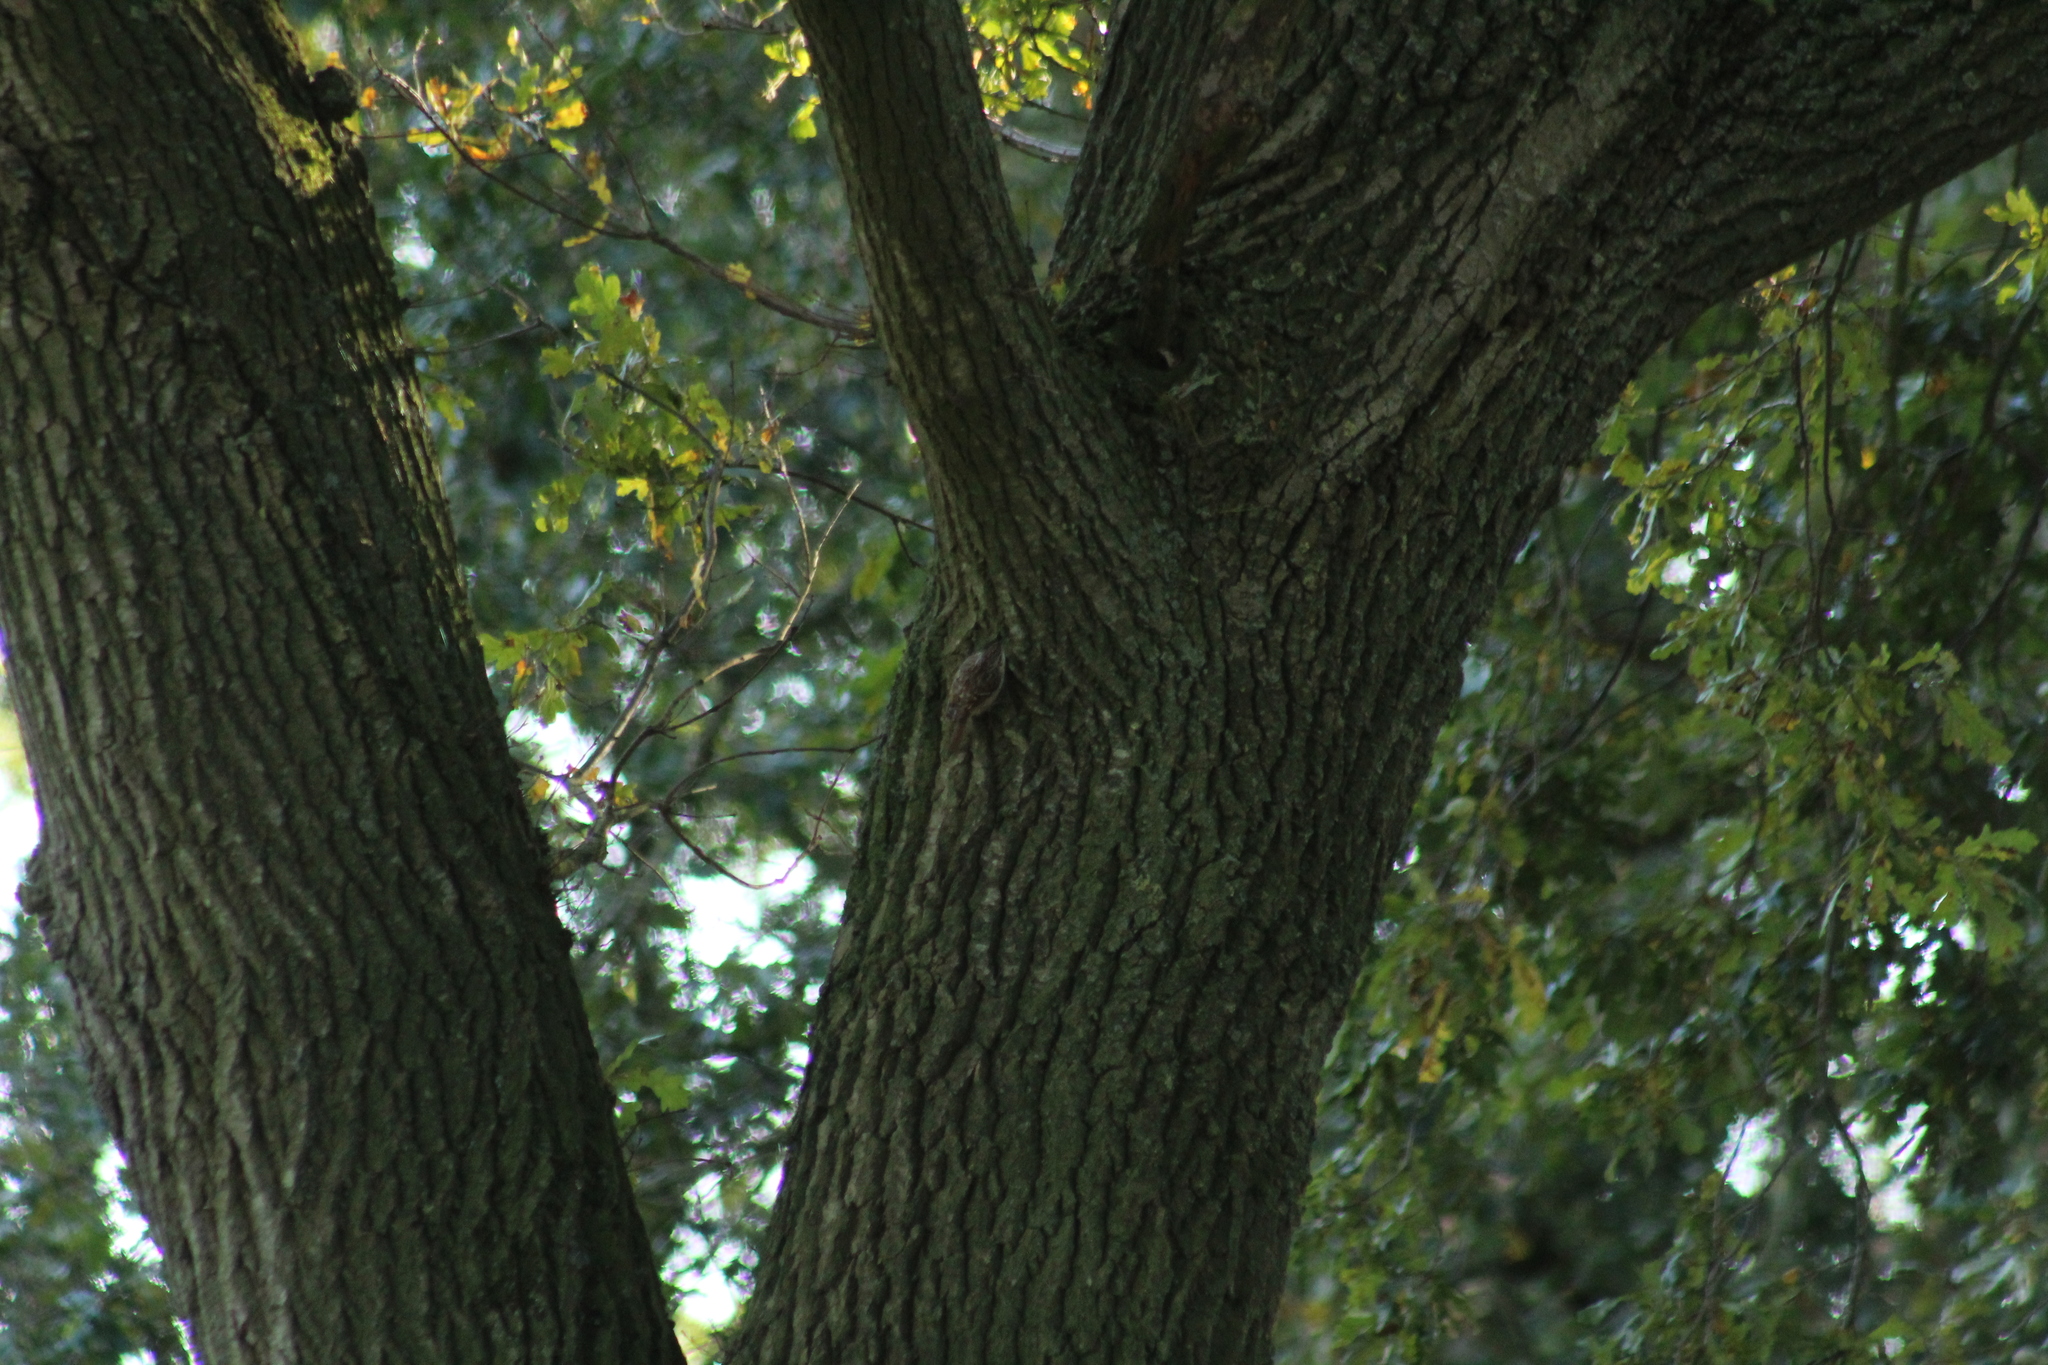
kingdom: Animalia
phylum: Chordata
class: Aves
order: Passeriformes
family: Certhiidae
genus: Certhia
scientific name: Certhia
